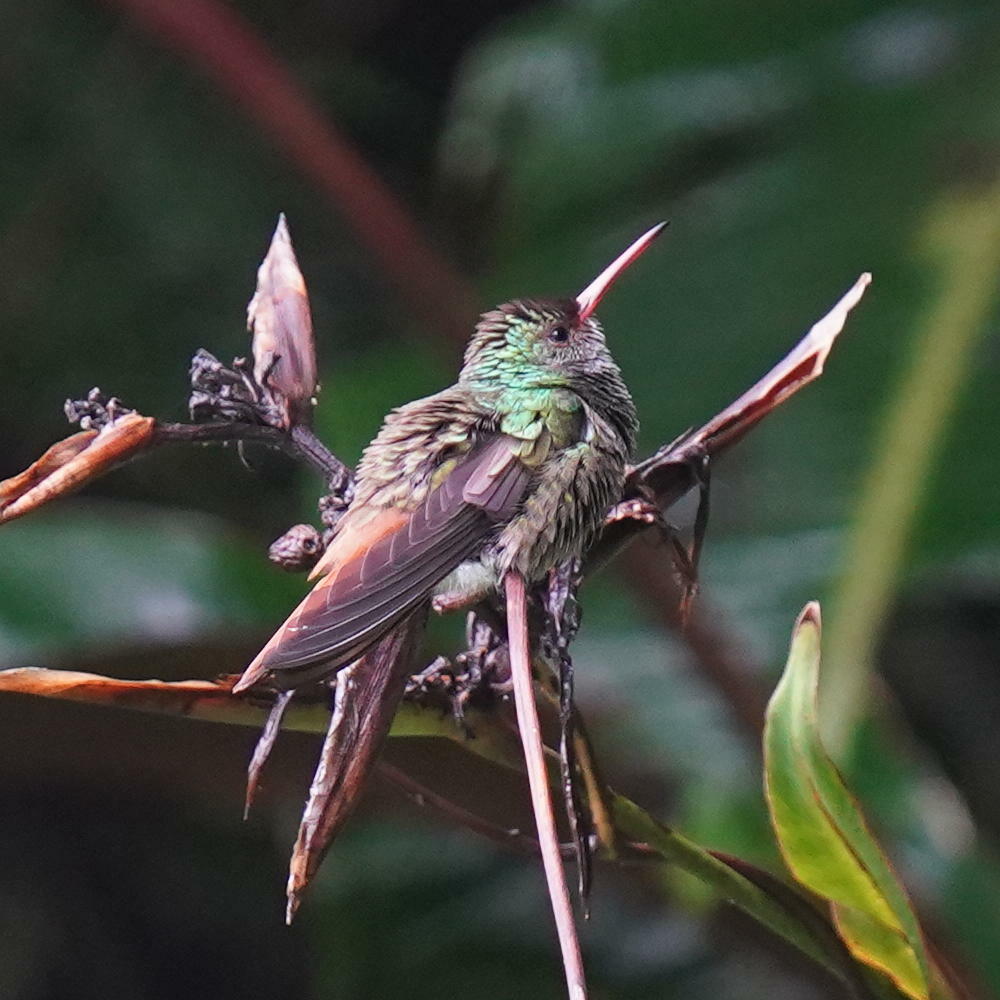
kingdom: Animalia
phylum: Chordata
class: Aves
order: Apodiformes
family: Trochilidae
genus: Amazilia
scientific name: Amazilia tzacatl
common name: Rufous-tailed hummingbird
